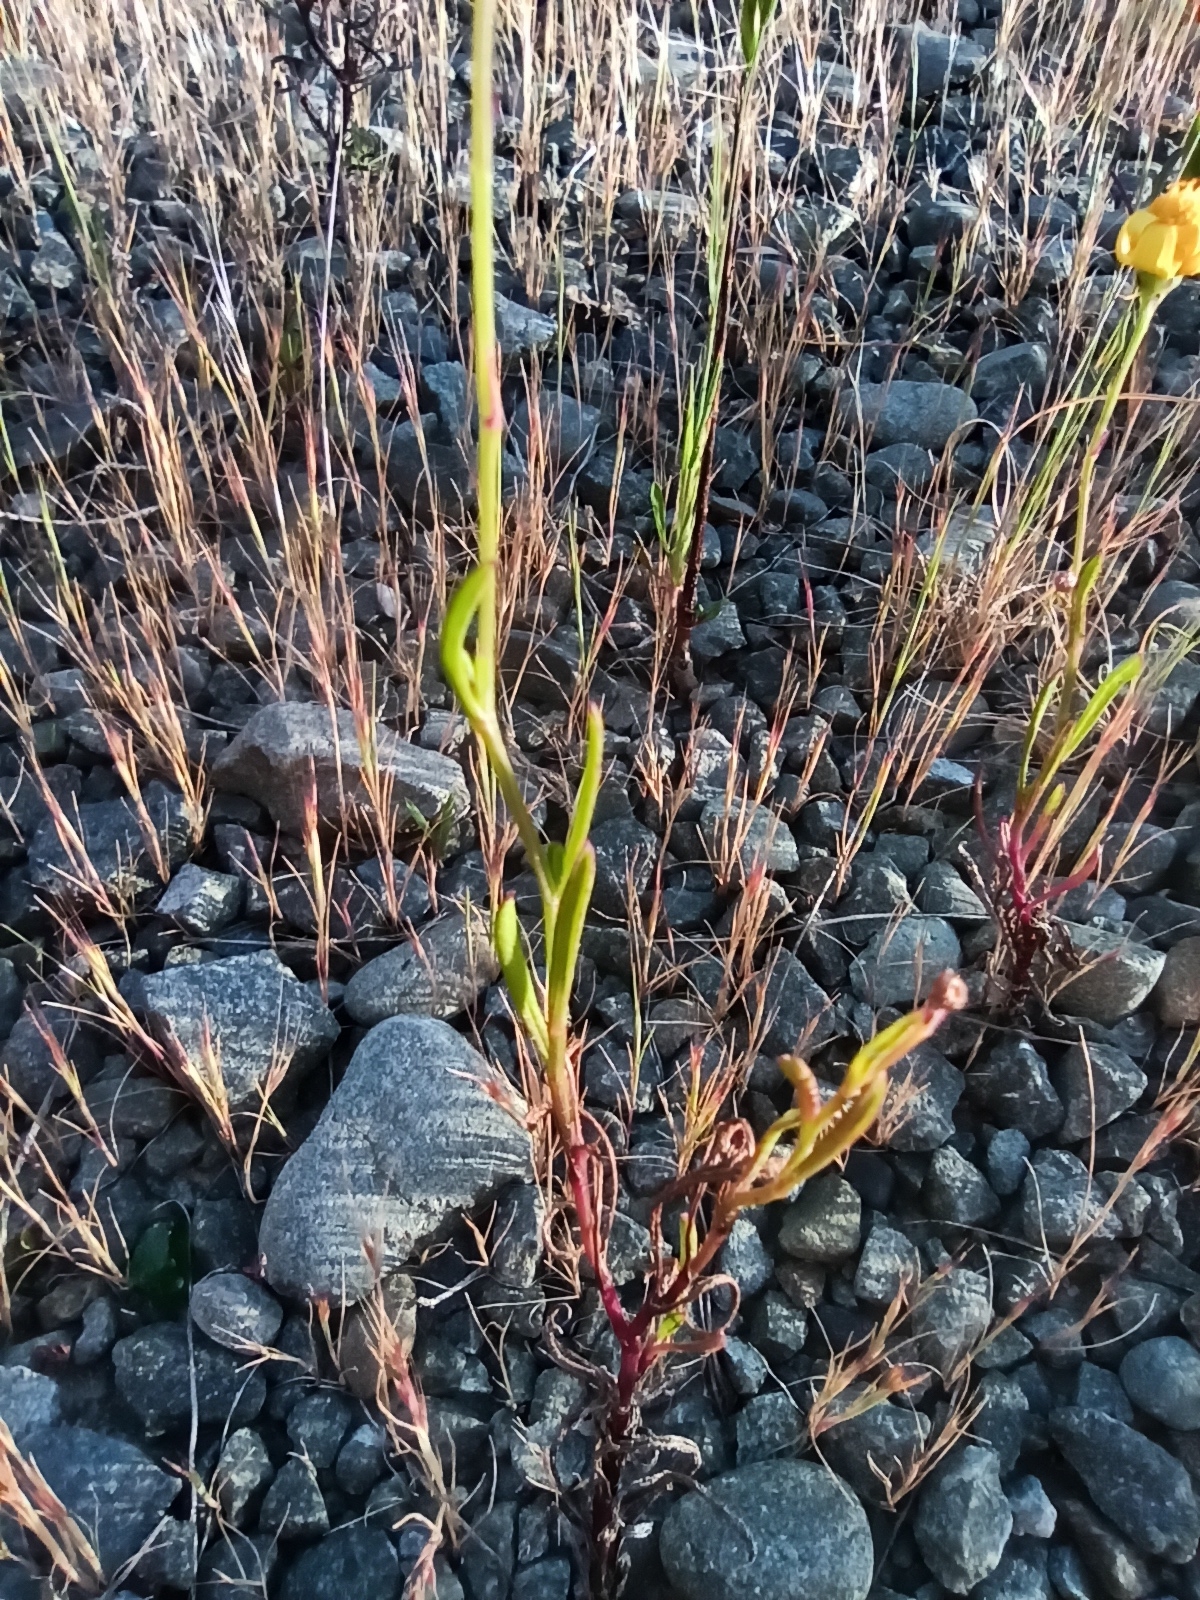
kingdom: Plantae
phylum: Tracheophyta
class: Magnoliopsida
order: Asterales
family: Asteraceae
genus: Senecio
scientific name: Senecio skirrhodon
